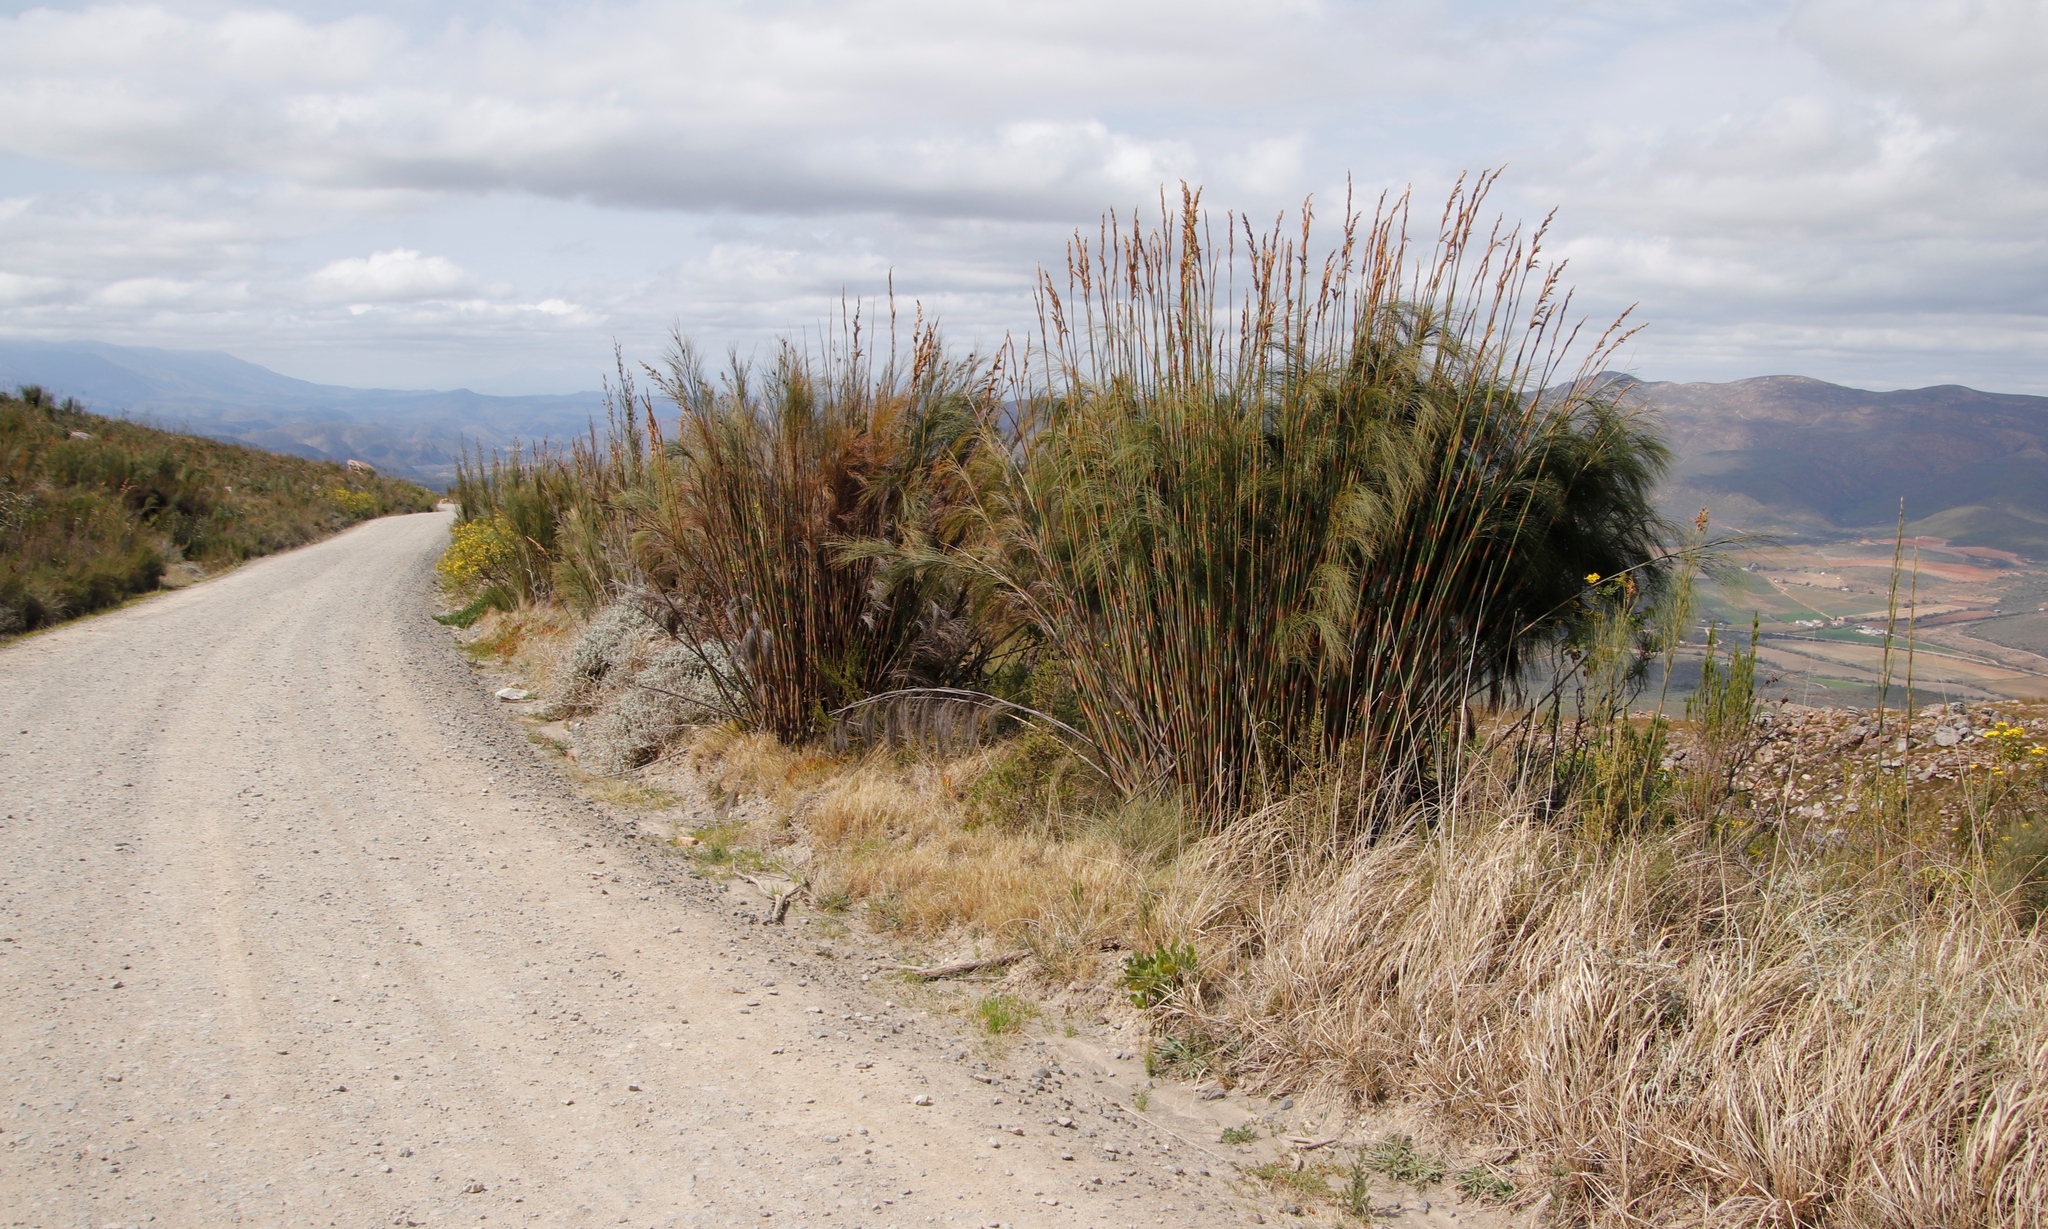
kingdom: Plantae
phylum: Tracheophyta
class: Liliopsida
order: Poales
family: Restionaceae
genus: Cannomois
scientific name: Cannomois robusta
